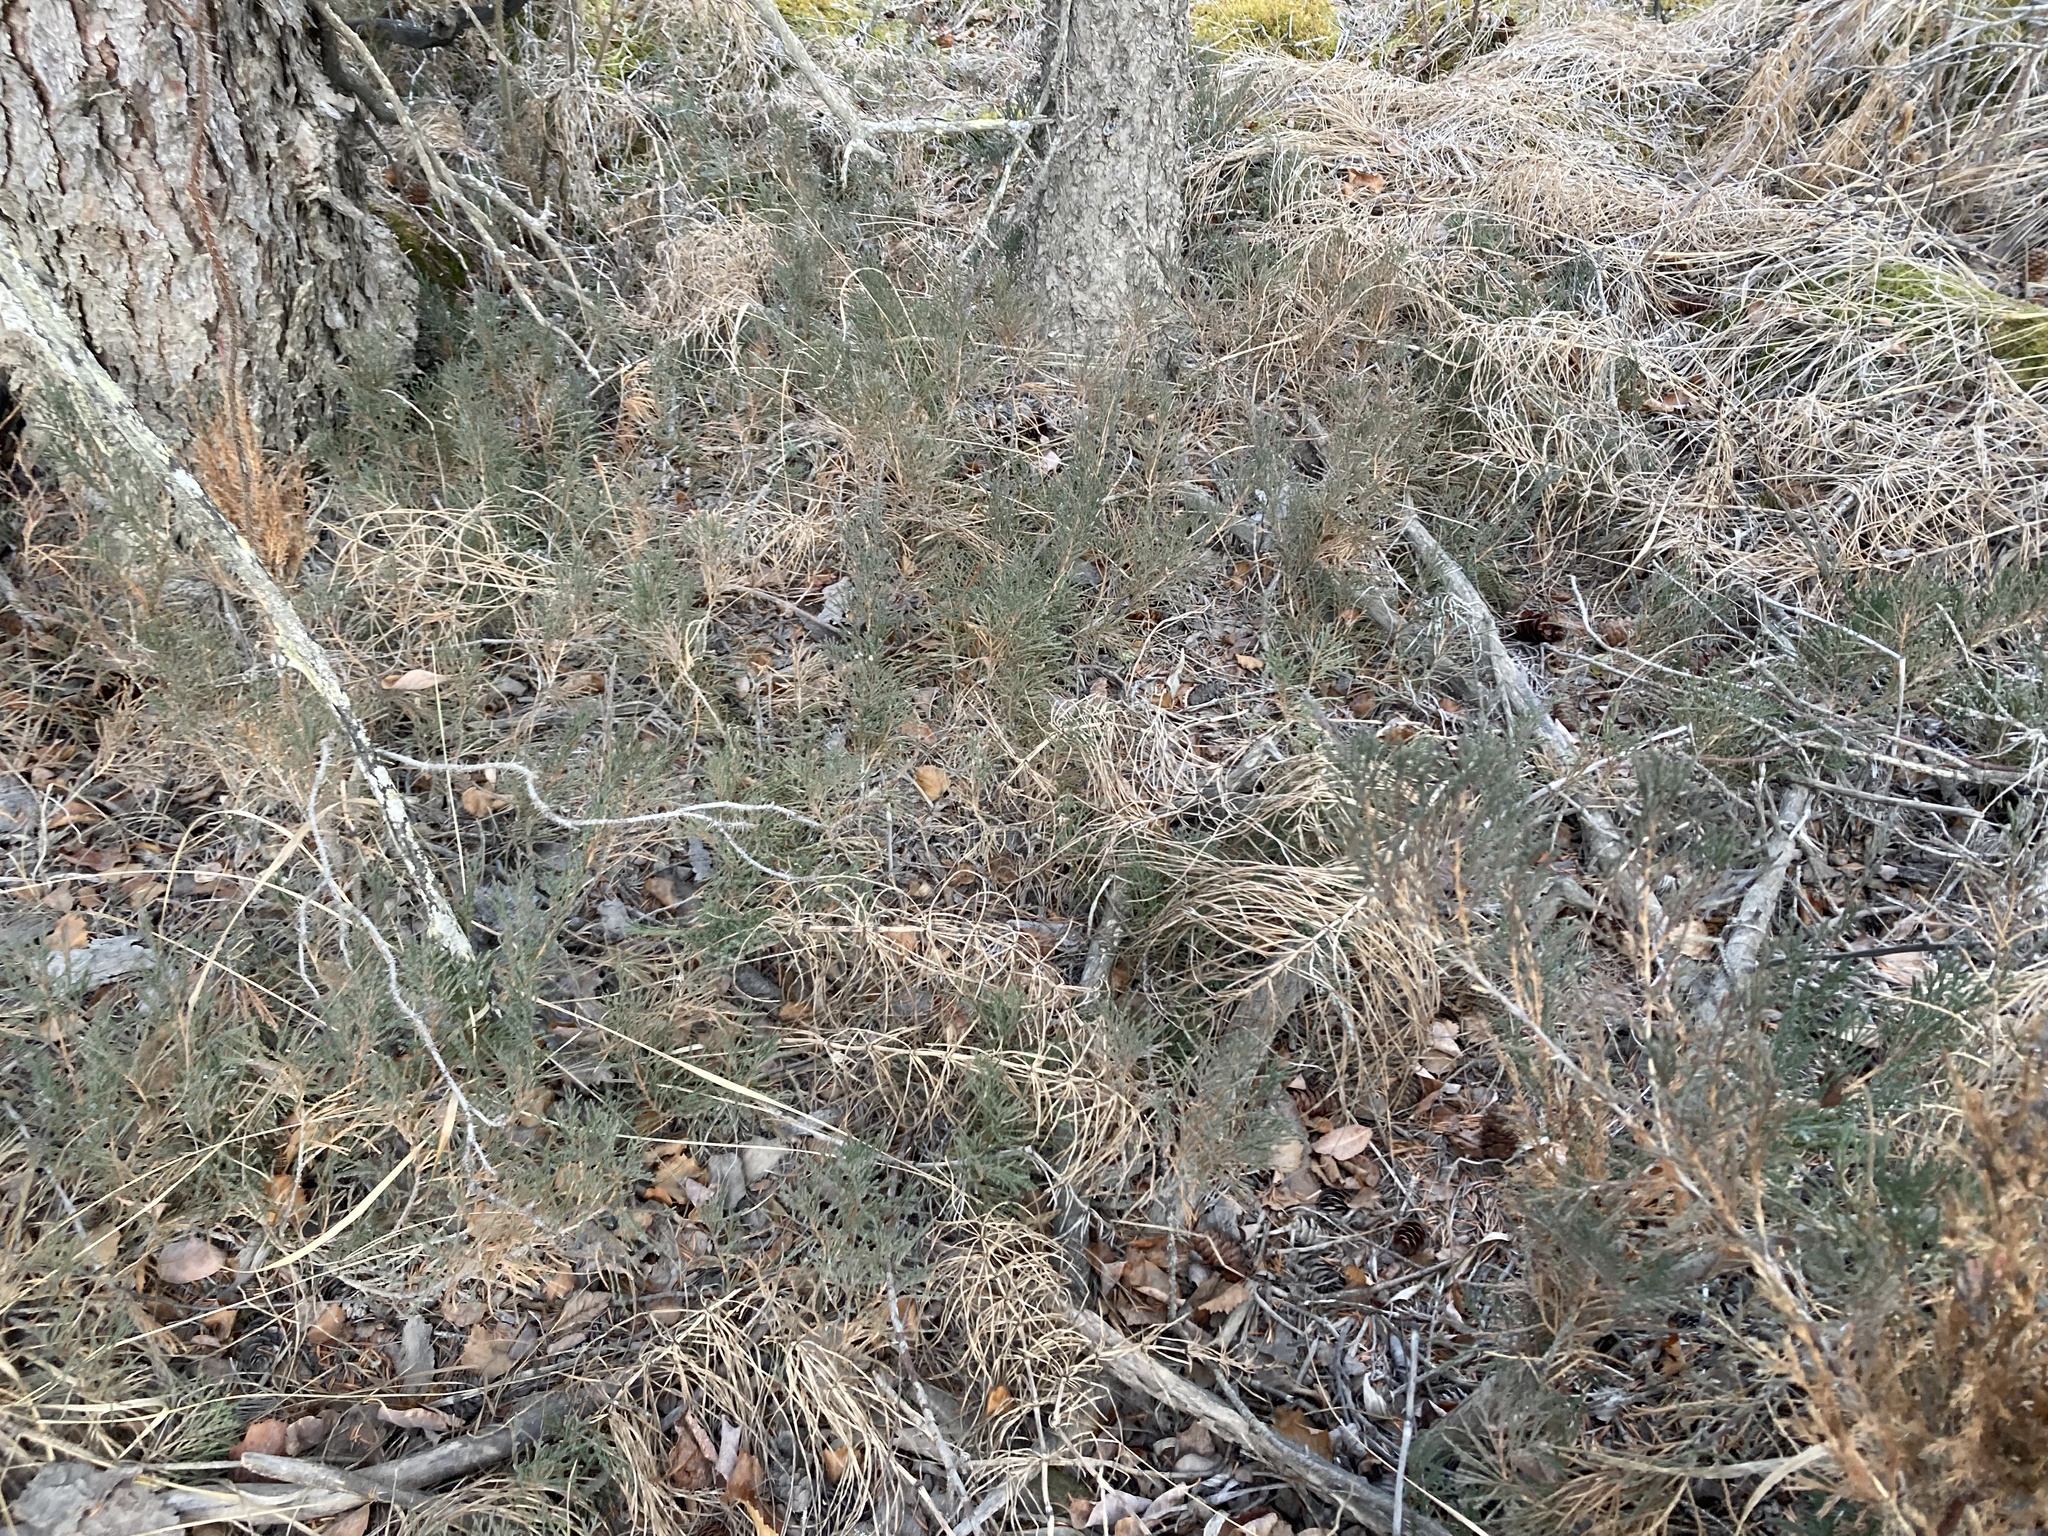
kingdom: Plantae
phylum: Tracheophyta
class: Pinopsida
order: Pinales
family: Cupressaceae
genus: Juniperus
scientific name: Juniperus horizontalis
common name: Creeping juniper
